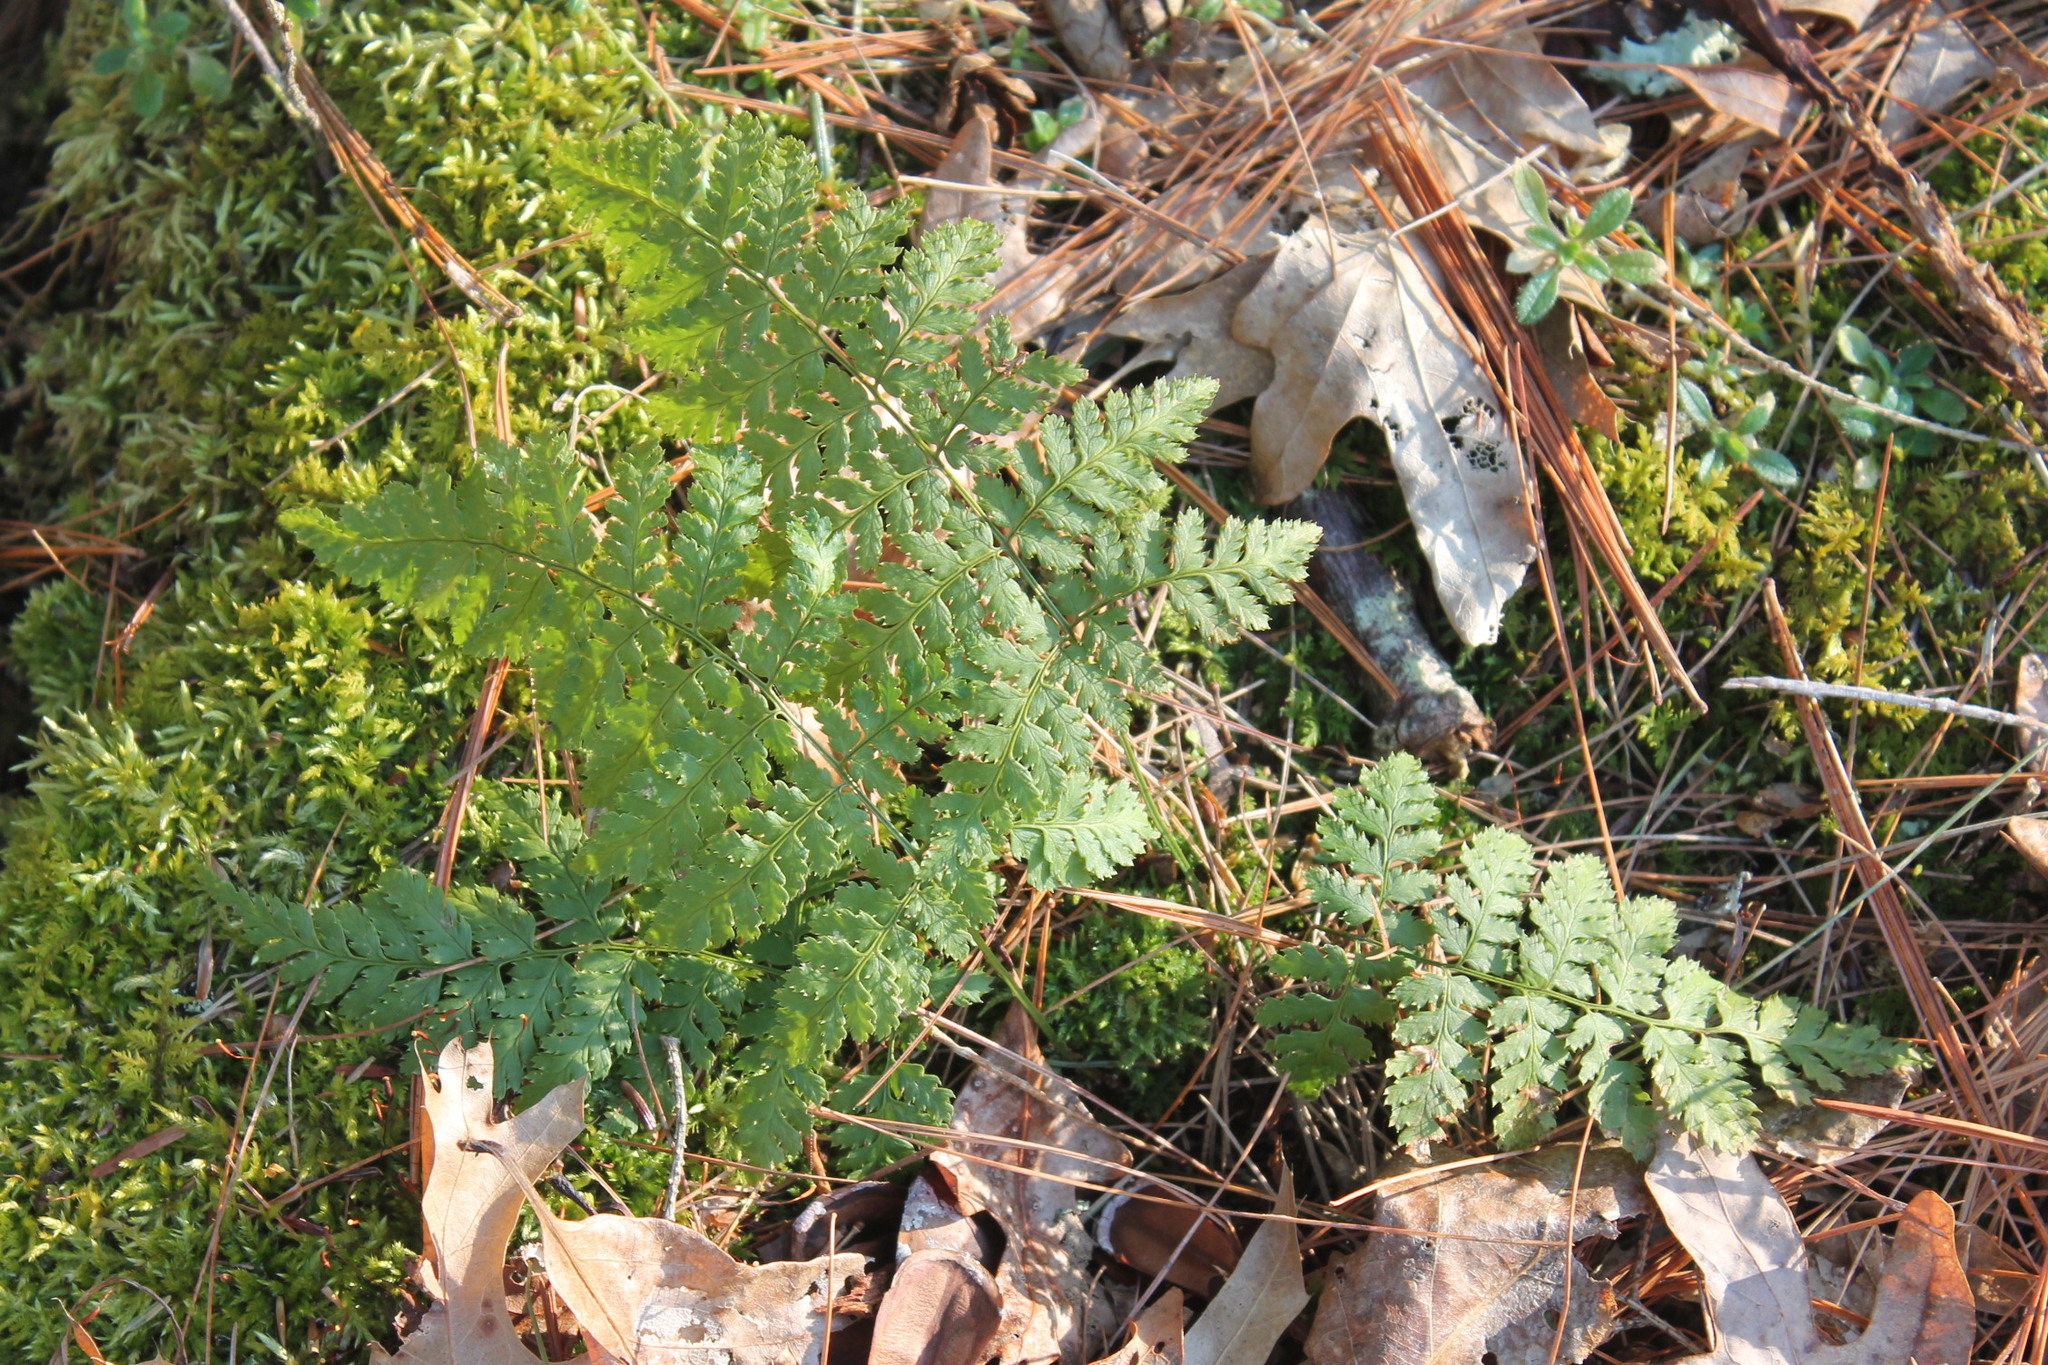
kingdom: Plantae
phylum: Tracheophyta
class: Polypodiopsida
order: Polypodiales
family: Dryopteridaceae
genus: Dryopteris
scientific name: Dryopteris intermedia
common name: Evergreen wood fern
